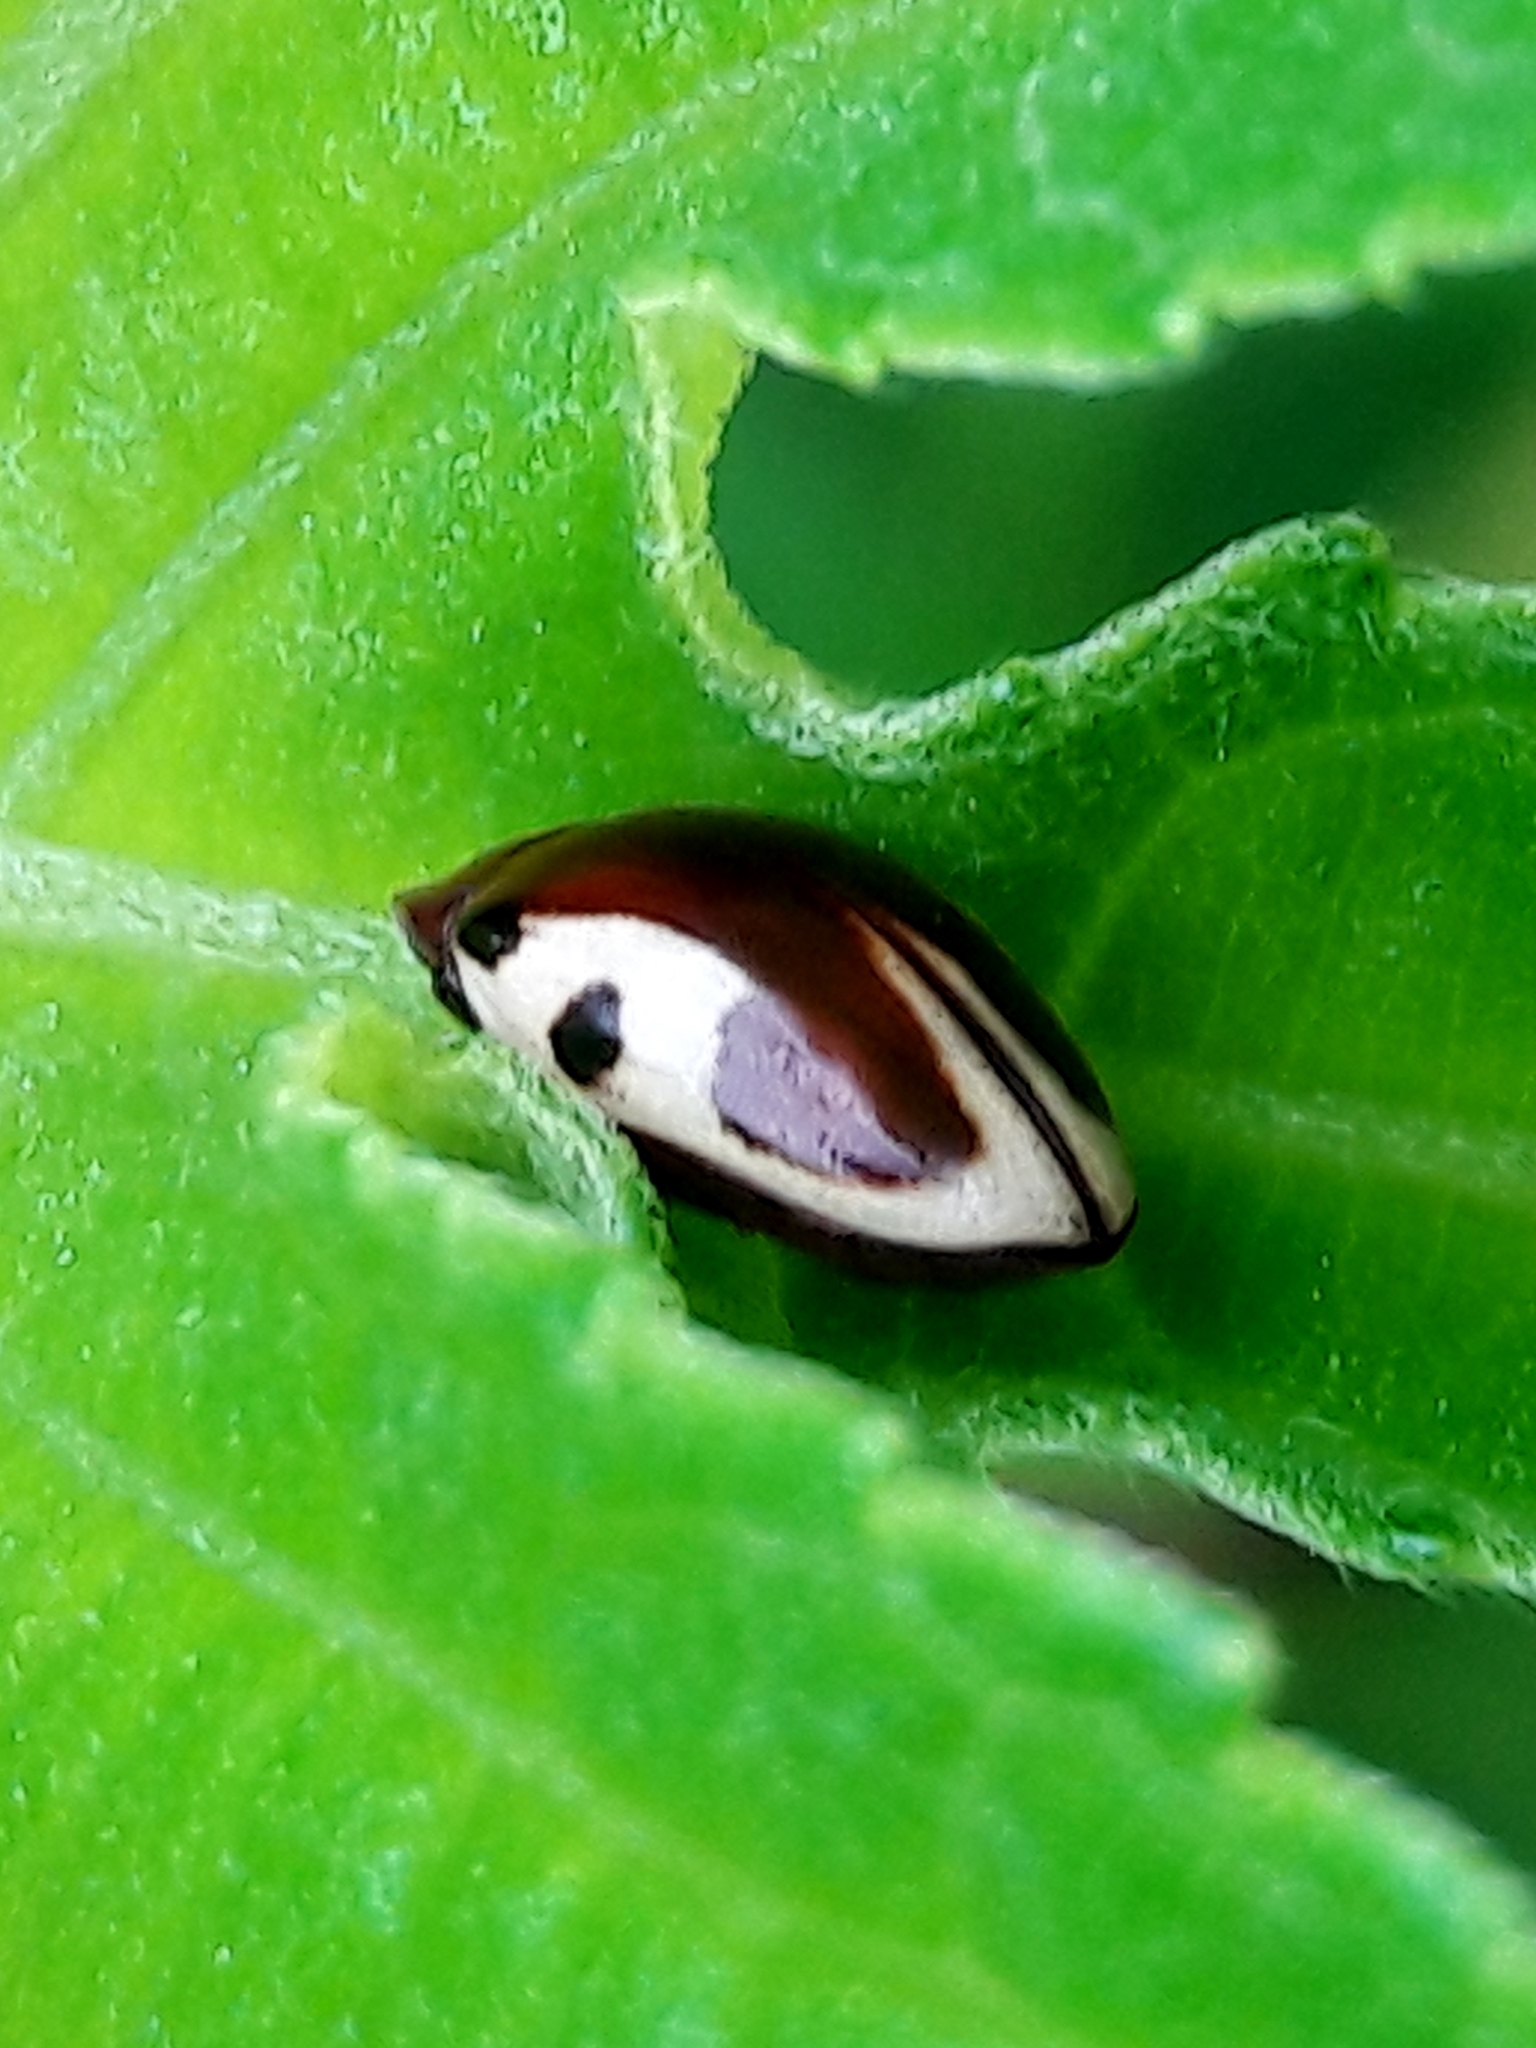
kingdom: Animalia
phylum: Arthropoda
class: Insecta
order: Coleoptera
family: Chelonariidae
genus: Chelonarium
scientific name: Chelonarium
